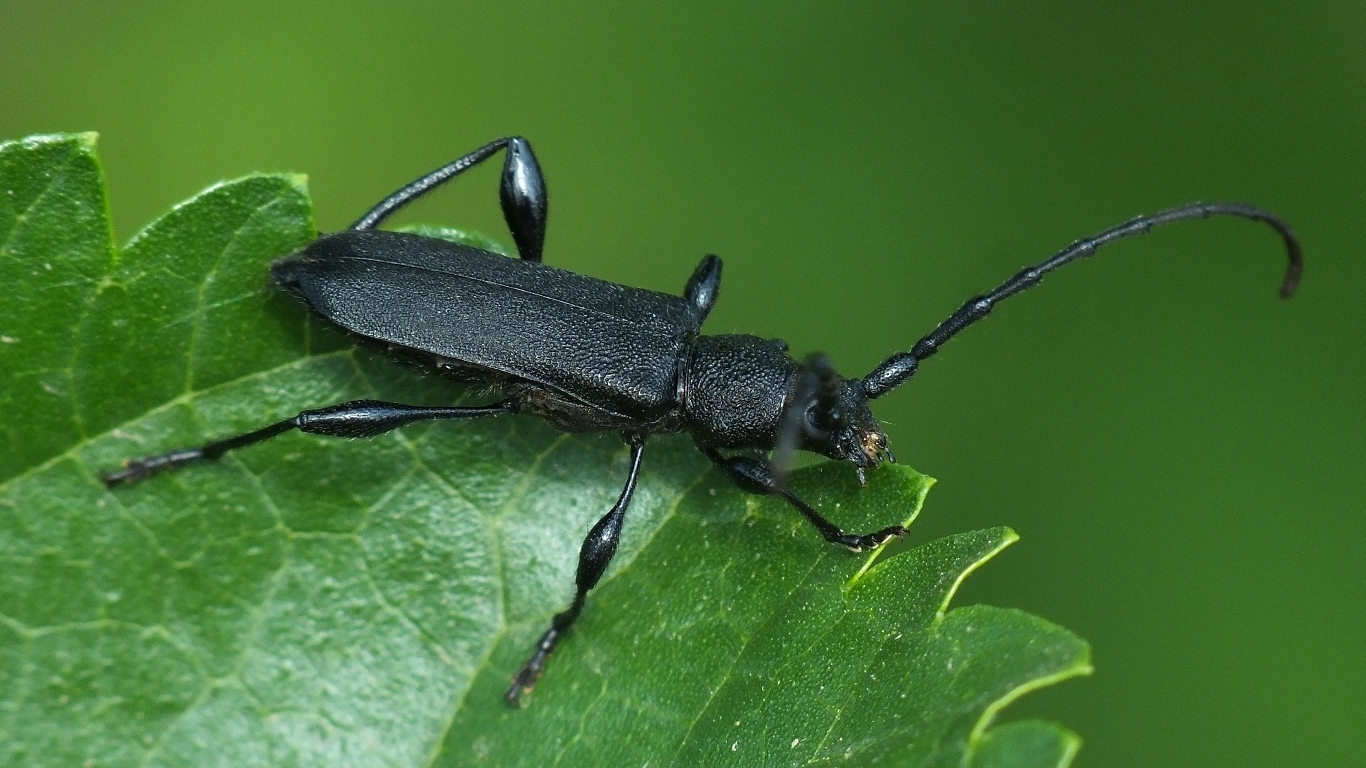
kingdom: Animalia
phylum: Arthropoda
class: Insecta
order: Coleoptera
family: Cerambycidae
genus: Ropalopus
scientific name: Ropalopus macropus
